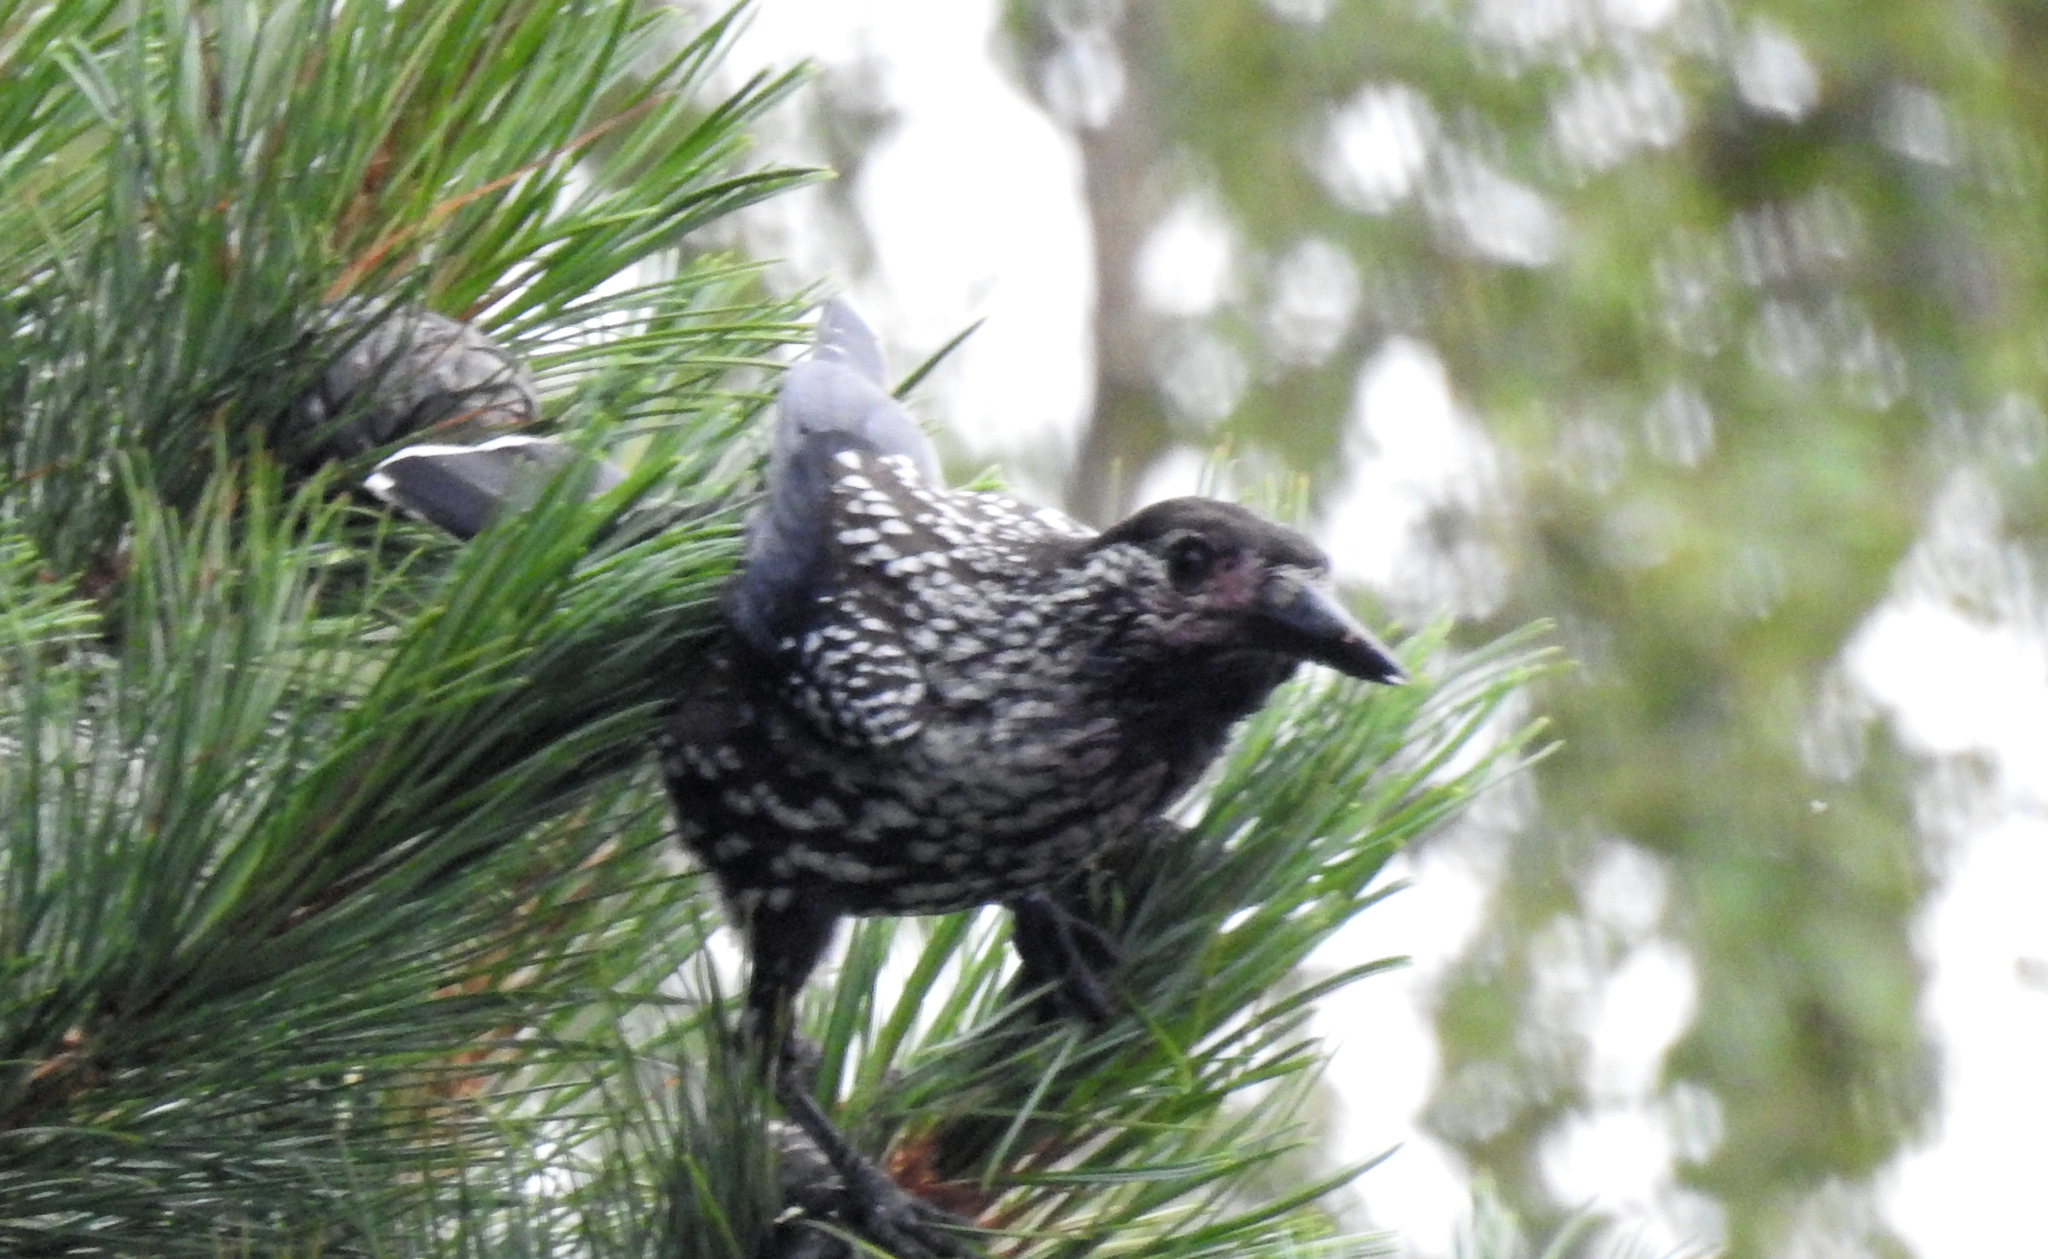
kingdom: Animalia
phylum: Chordata
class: Aves
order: Passeriformes
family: Corvidae
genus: Nucifraga
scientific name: Nucifraga caryocatactes
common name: Spotted nutcracker
